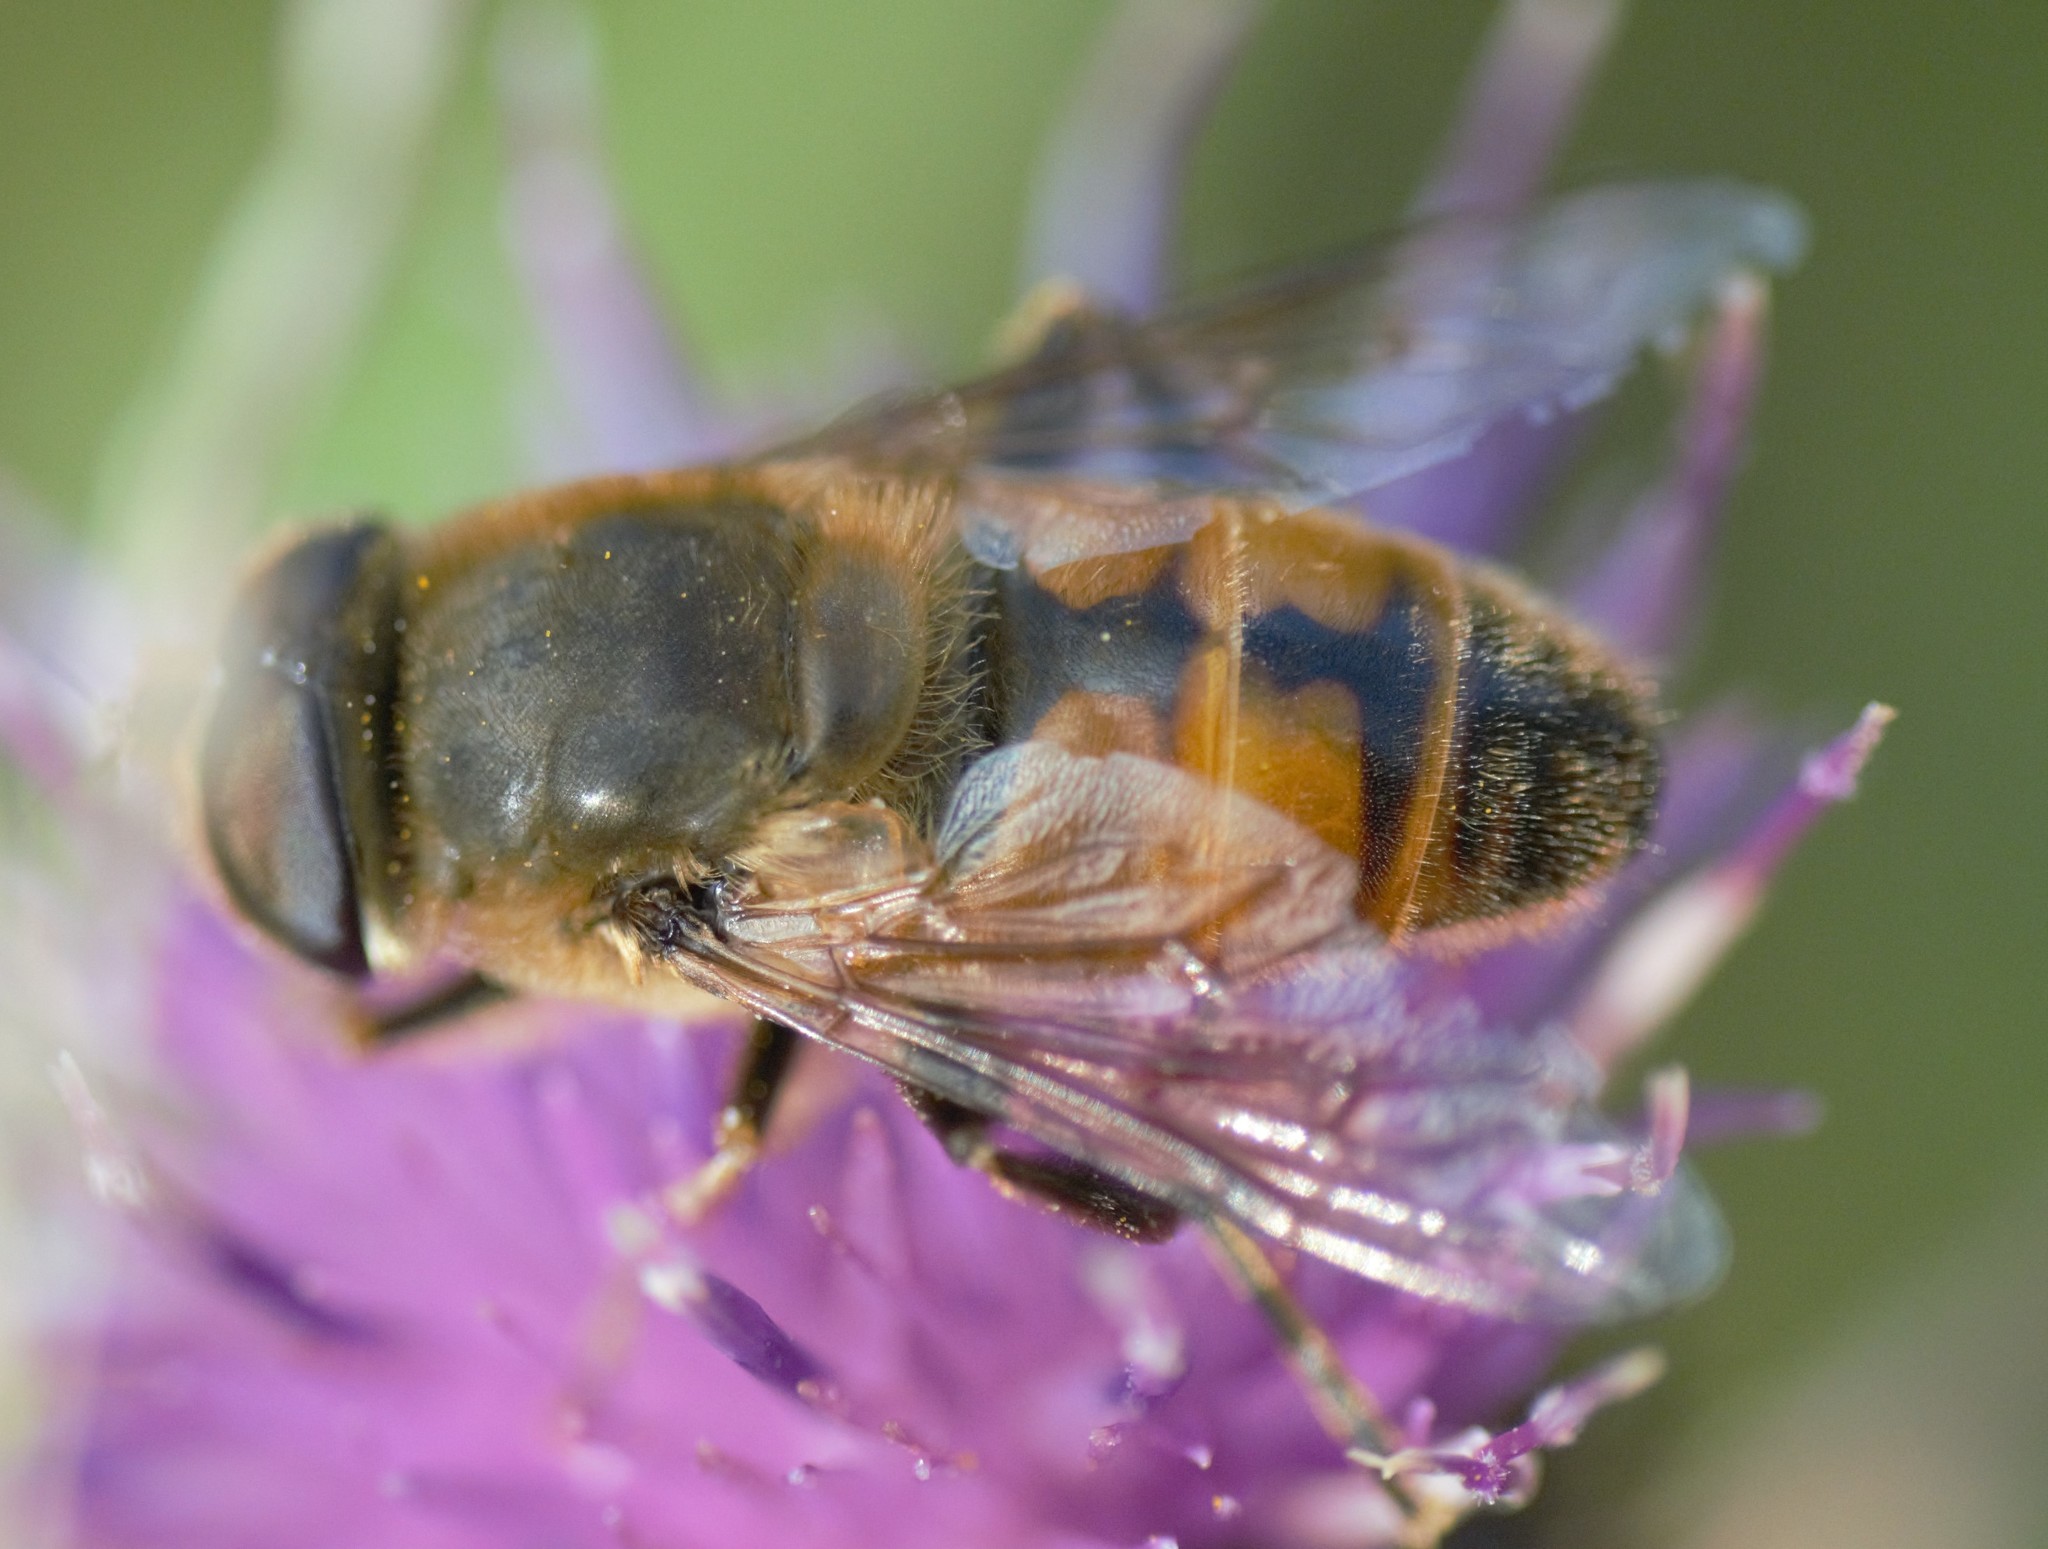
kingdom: Animalia
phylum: Arthropoda
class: Insecta
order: Diptera
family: Syrphidae
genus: Eristalis
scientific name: Eristalis tenax
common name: Drone fly
